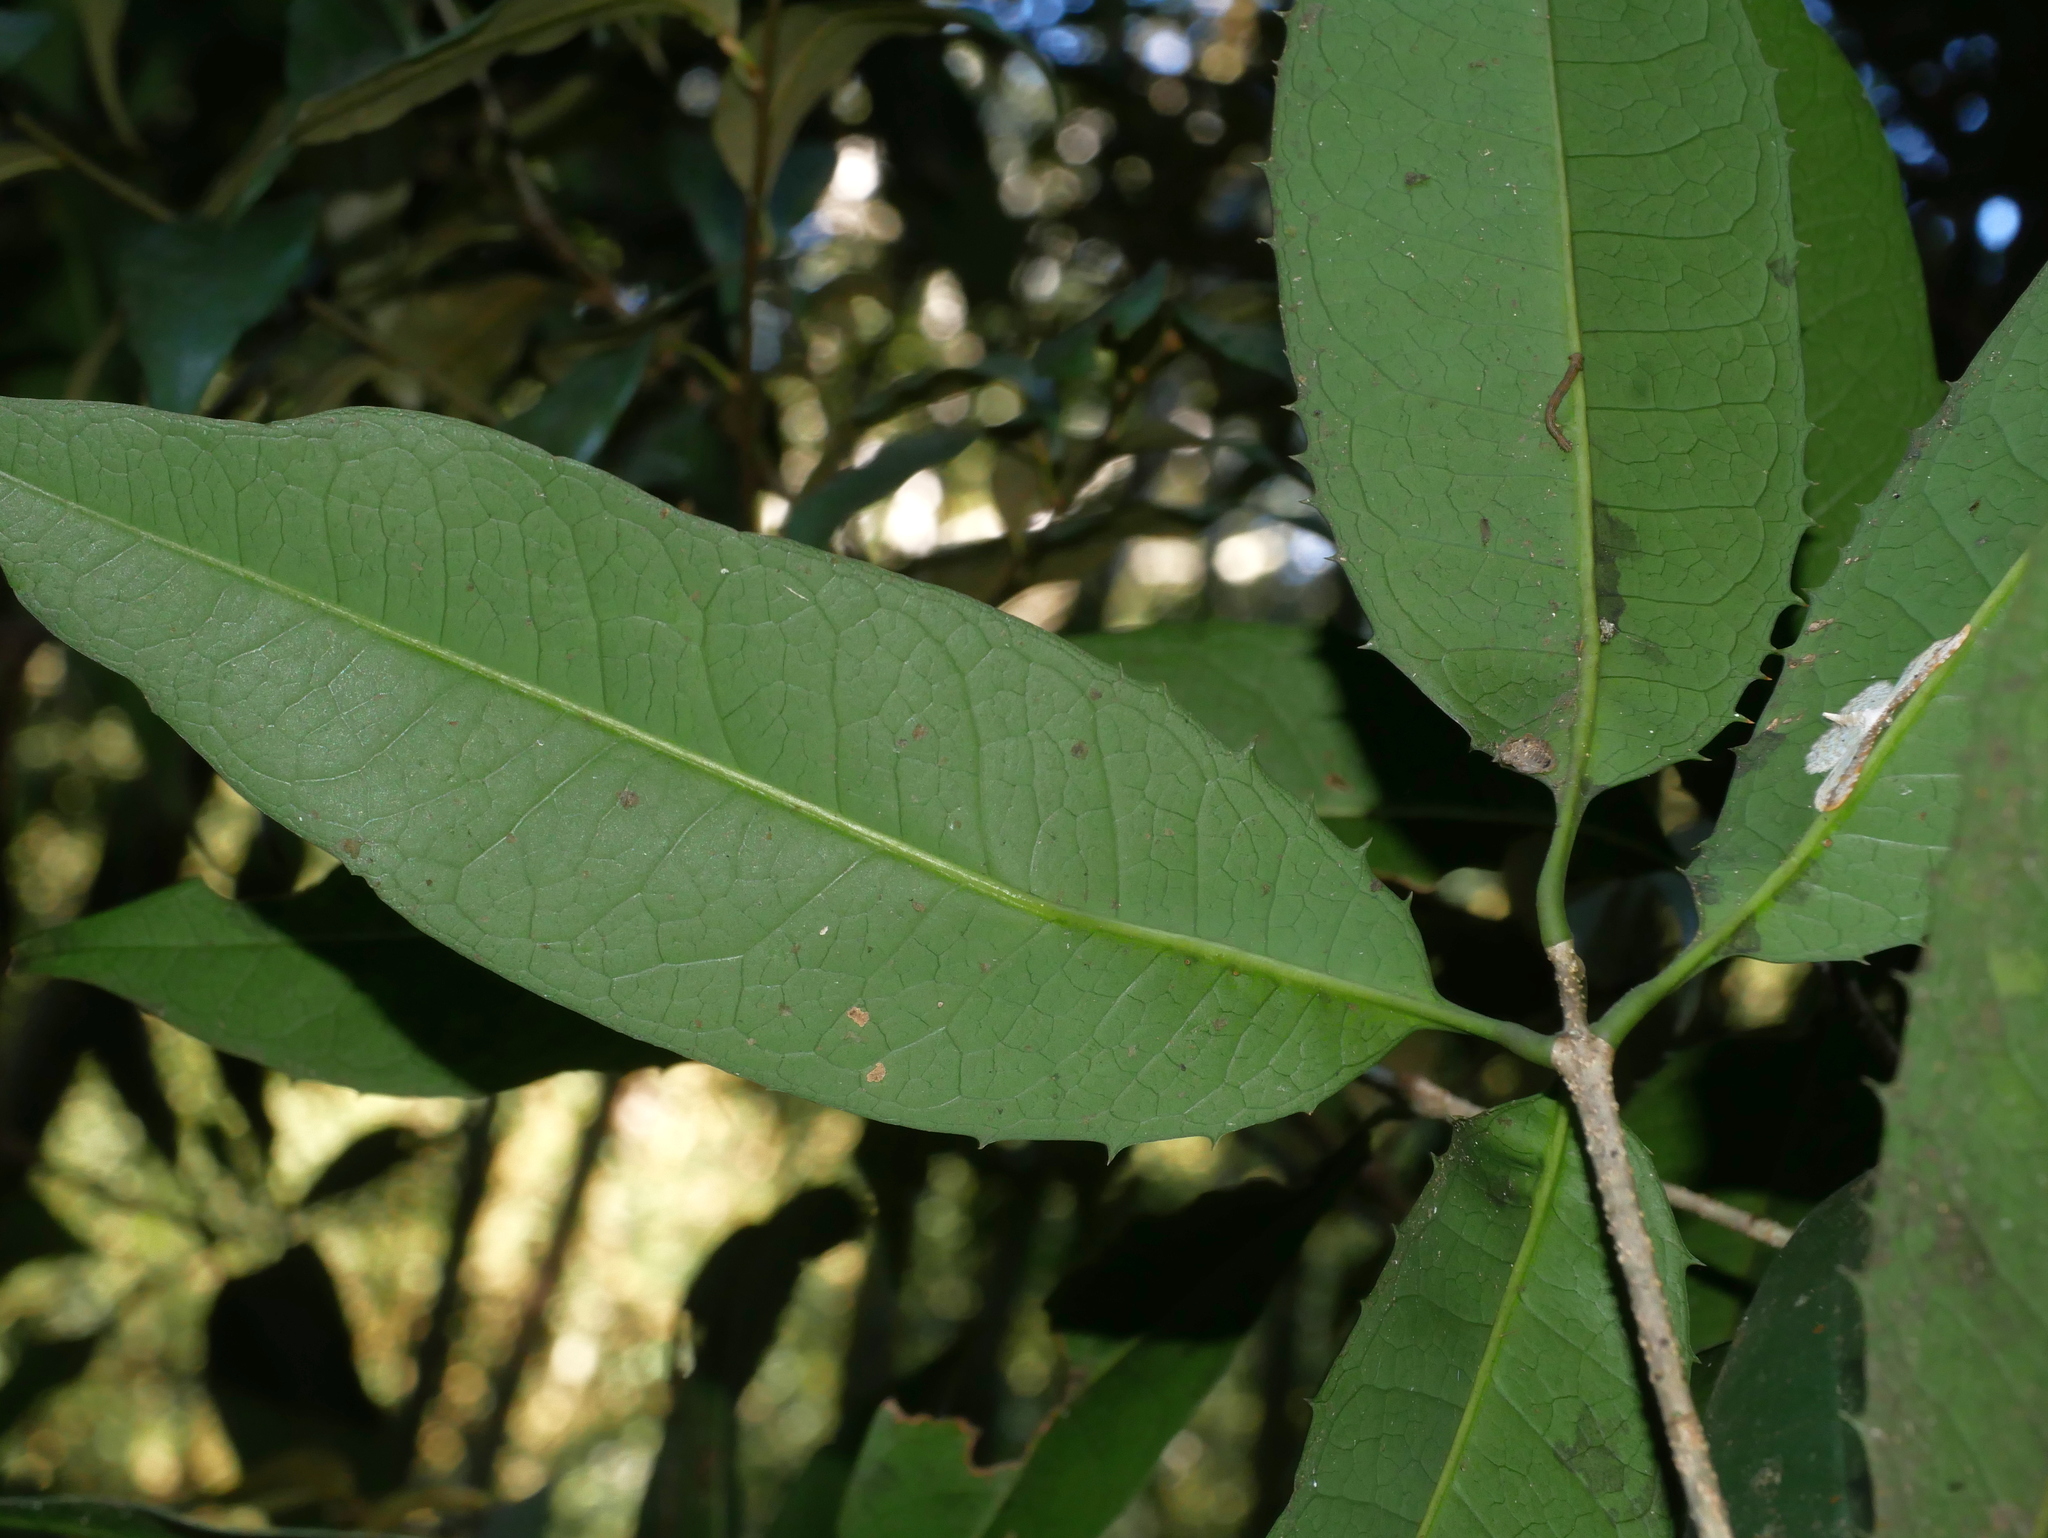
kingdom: Plantae
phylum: Tracheophyta
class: Magnoliopsida
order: Lamiales
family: Oleaceae
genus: Osmanthus
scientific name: Osmanthus kaoi
